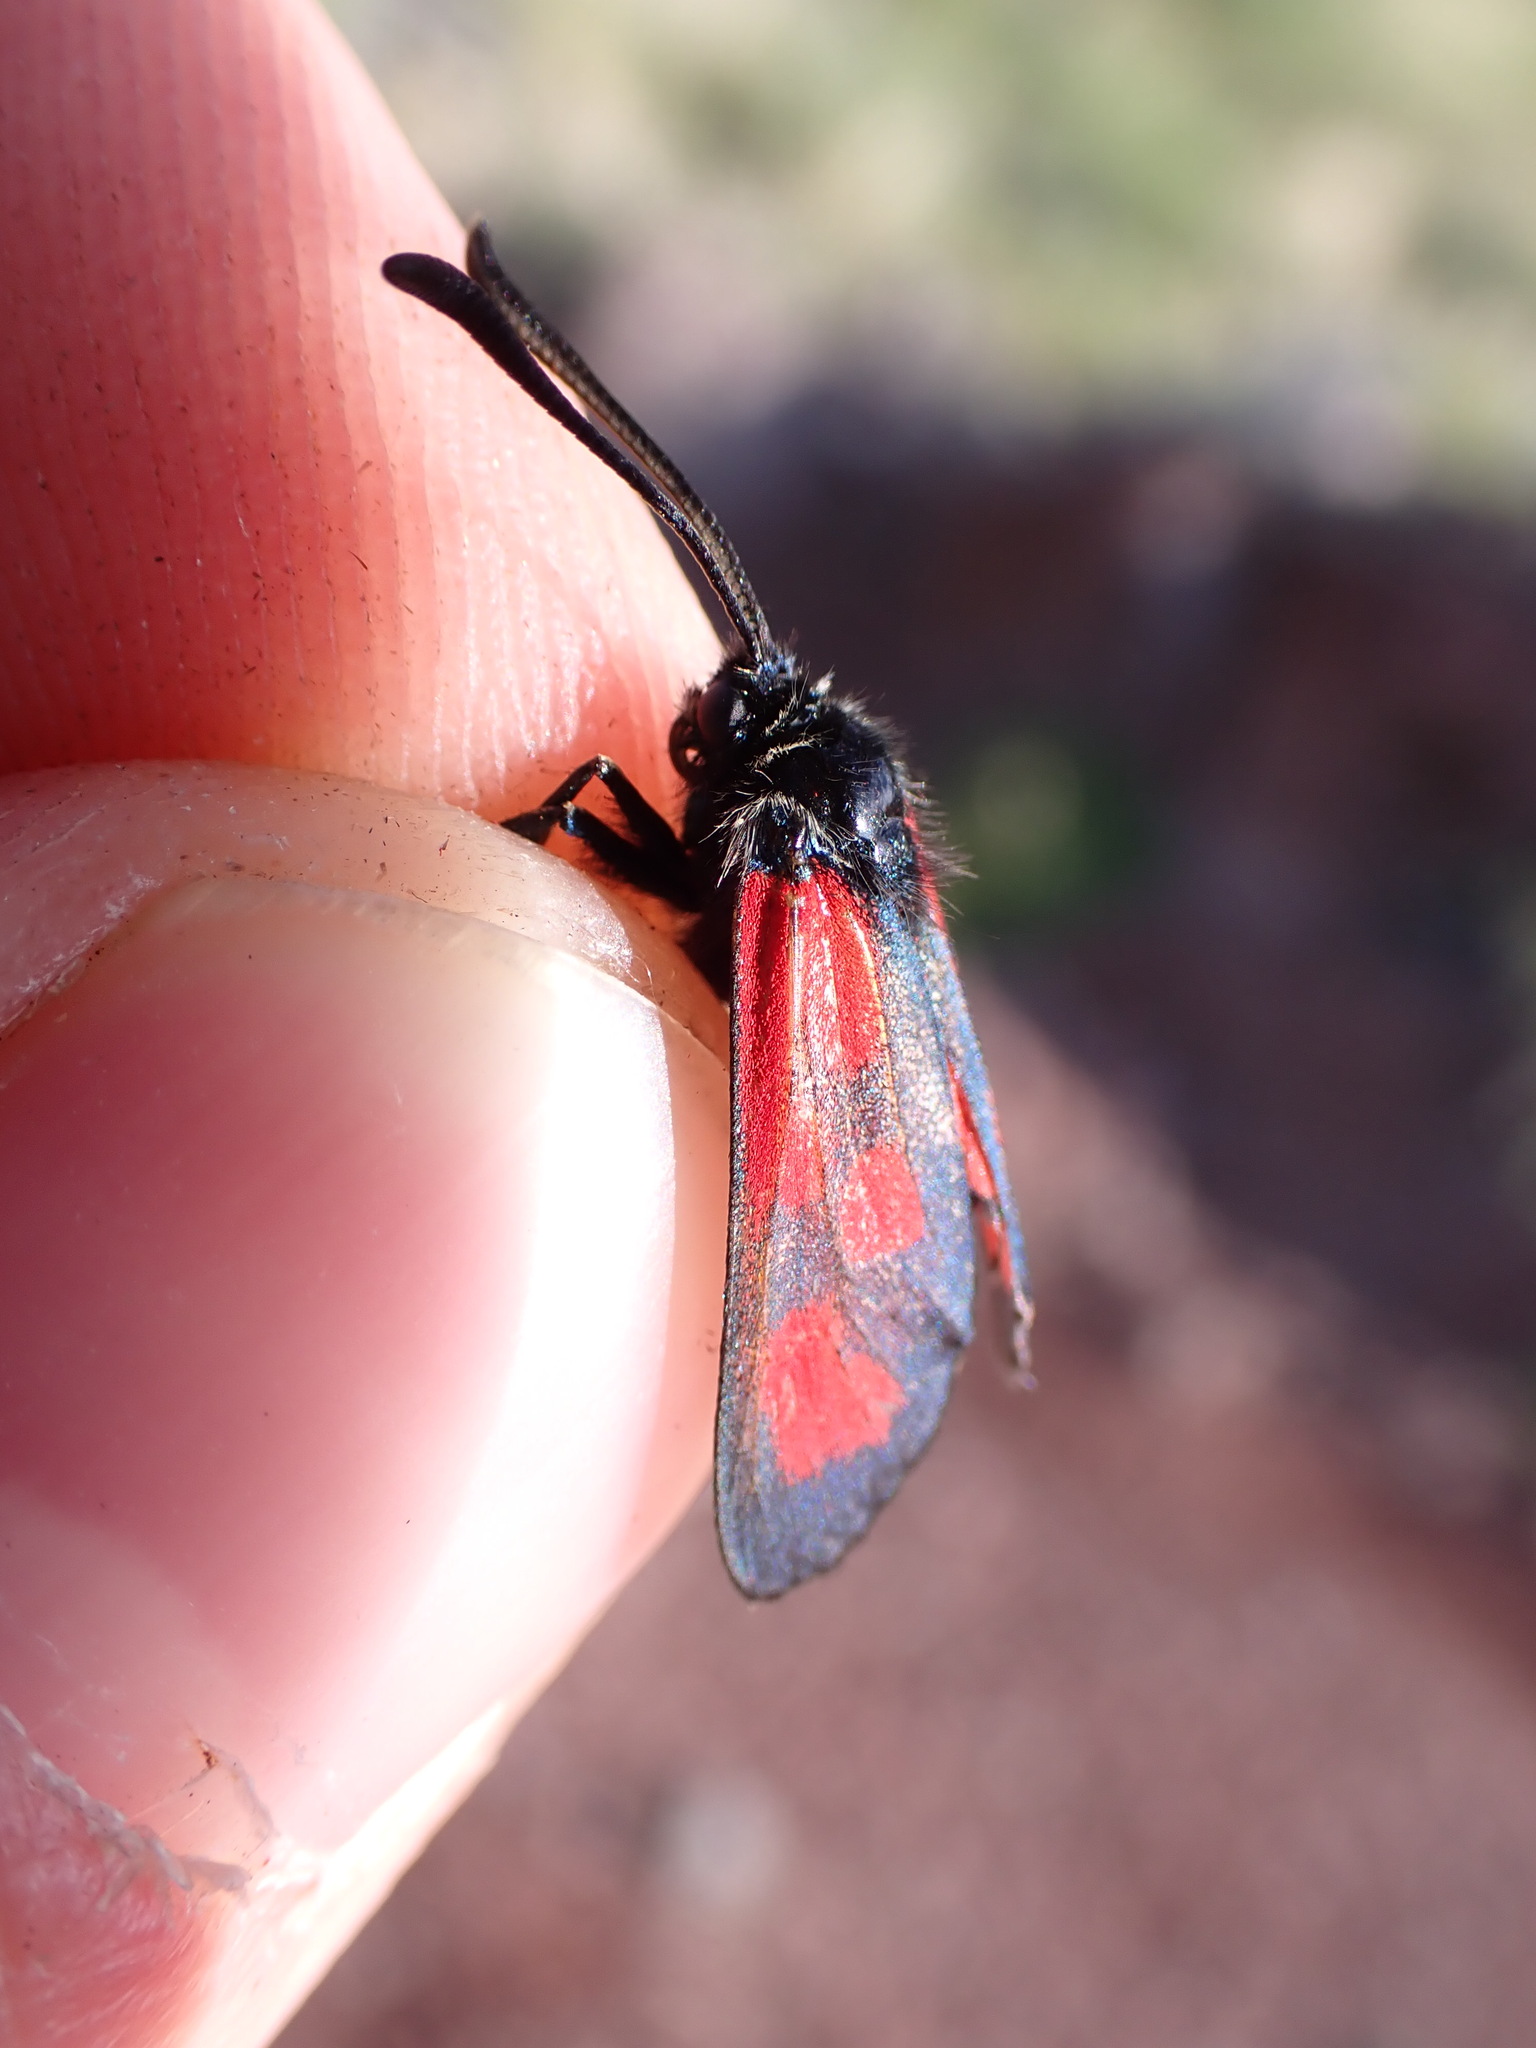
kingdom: Animalia
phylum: Arthropoda
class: Insecta
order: Lepidoptera
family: Zygaenidae
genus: Zygaena
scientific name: Zygaena loti
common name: Slender scotch burnet
